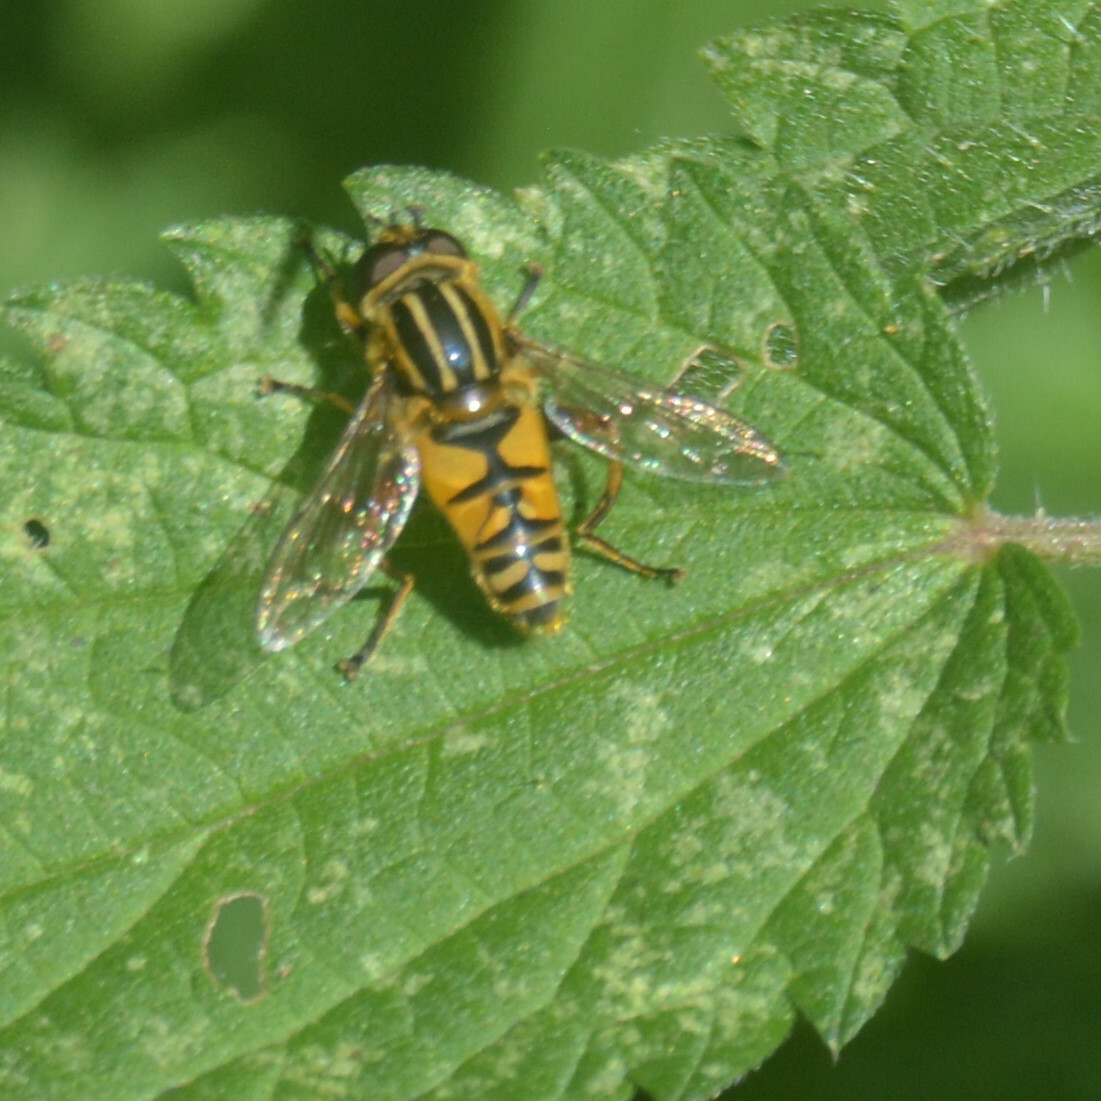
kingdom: Animalia
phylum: Arthropoda
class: Insecta
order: Diptera
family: Syrphidae
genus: Helophilus
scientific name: Helophilus pendulus
